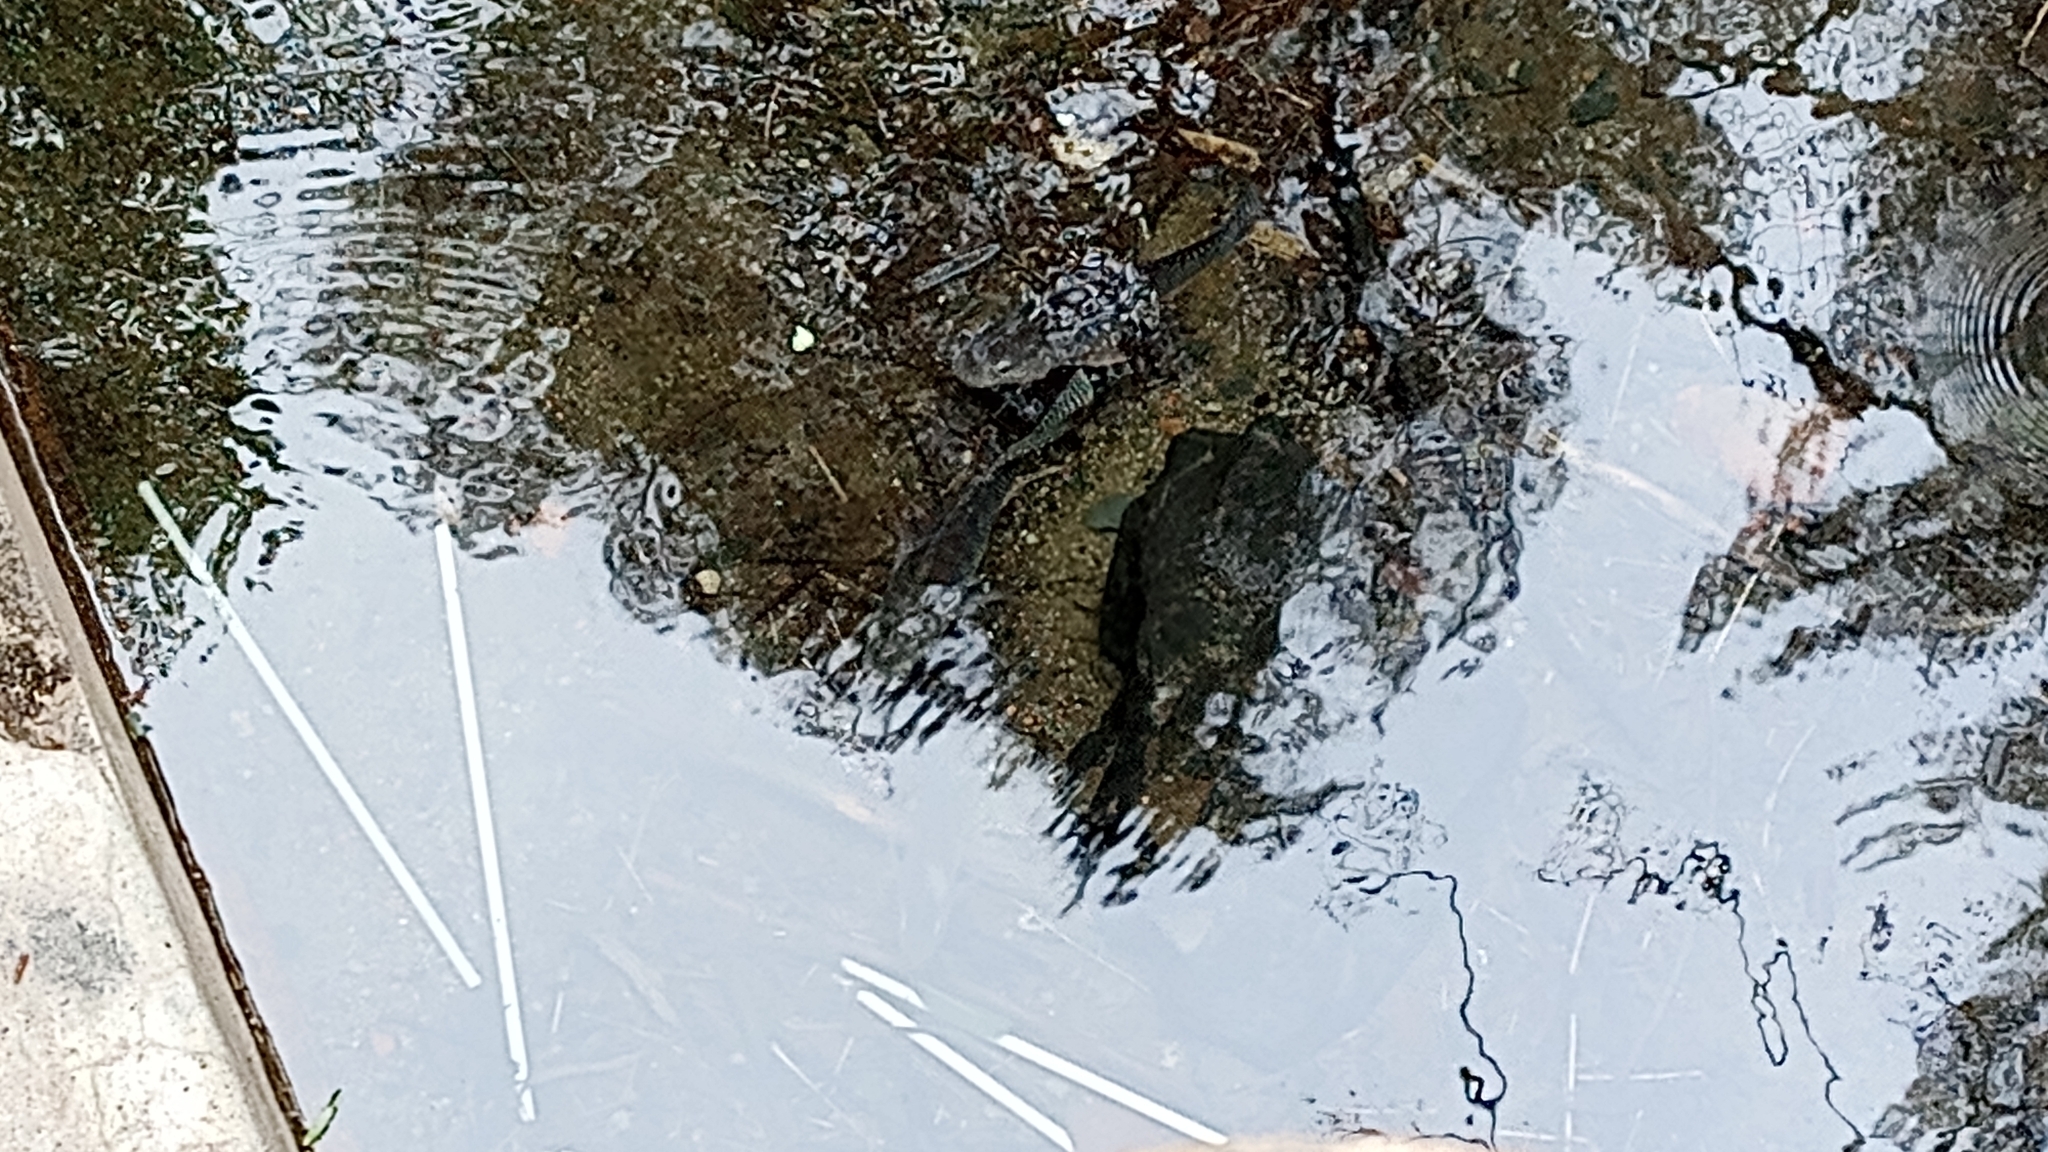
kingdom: Animalia
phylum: Chordata
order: Perciformes
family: Cichlidae
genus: Oreochromis
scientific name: Oreochromis niloticus
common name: Nile tilapia
